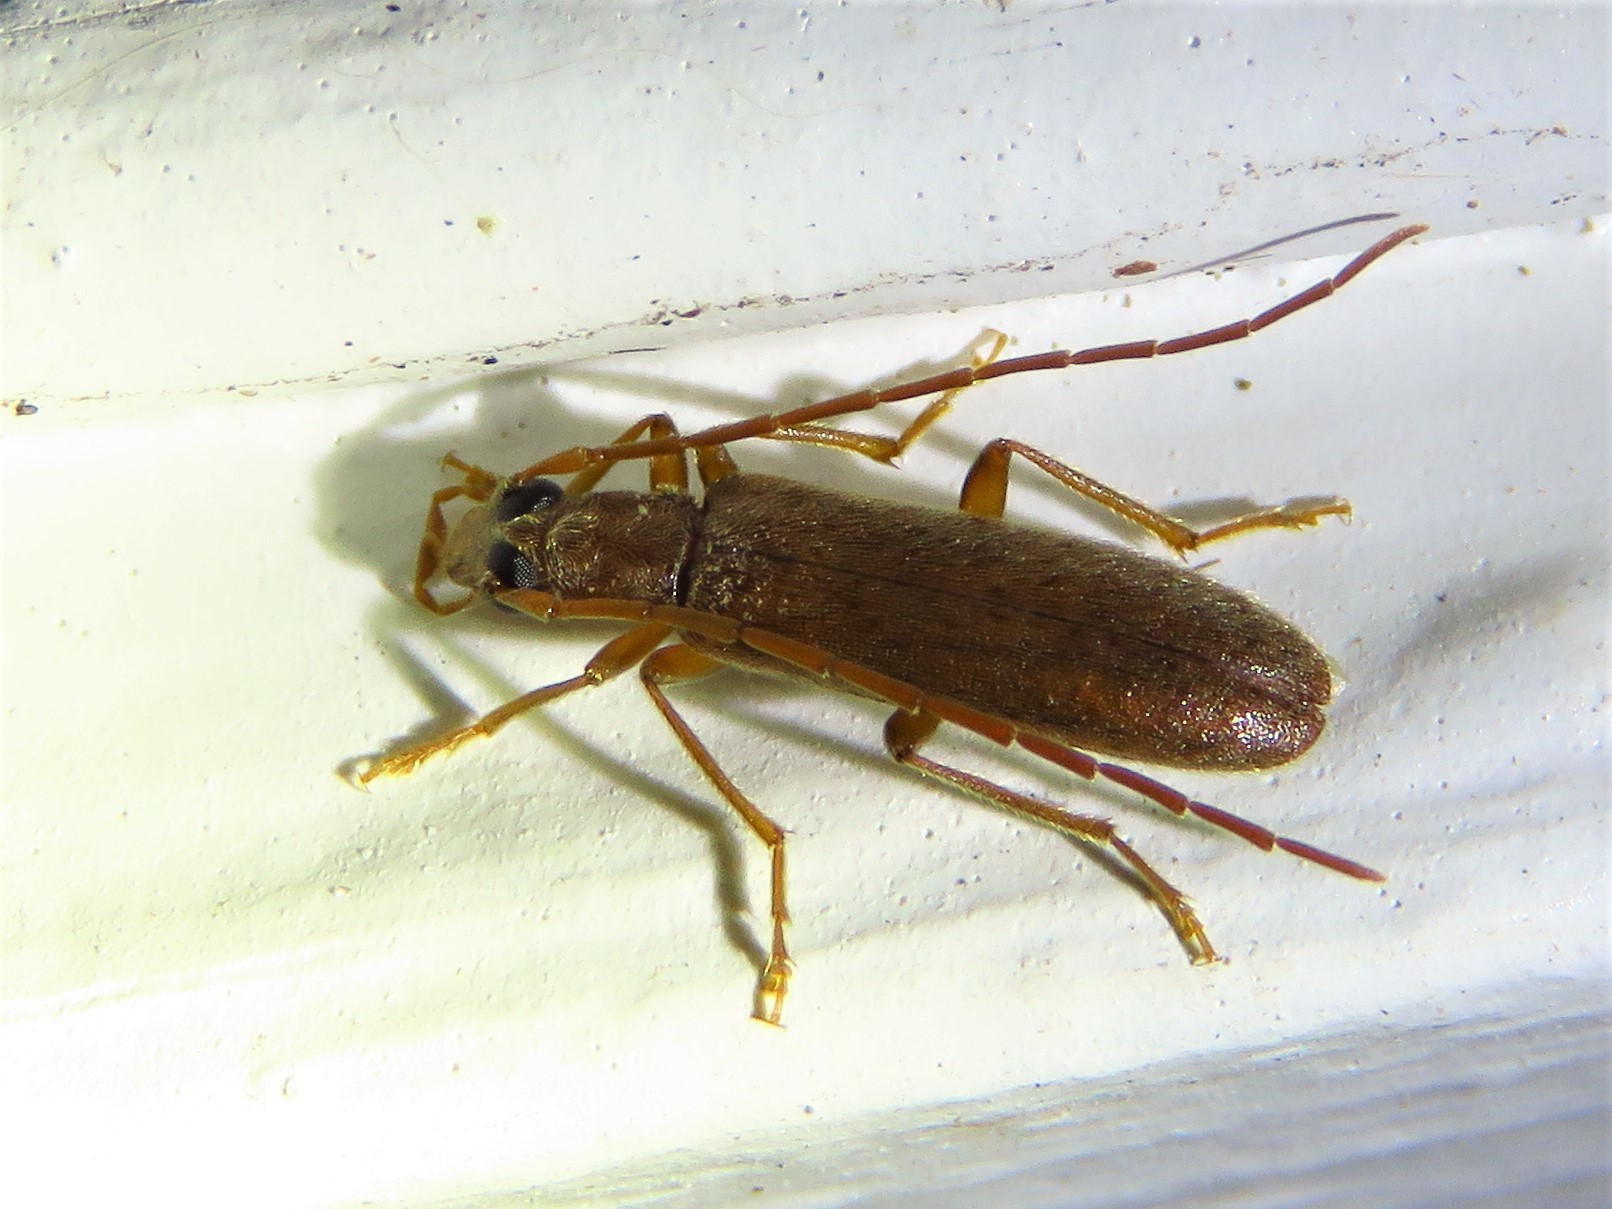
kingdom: Animalia
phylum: Arthropoda
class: Insecta
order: Coleoptera
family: Oedemeridae
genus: Sparedrus
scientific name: Sparedrus aspersus
